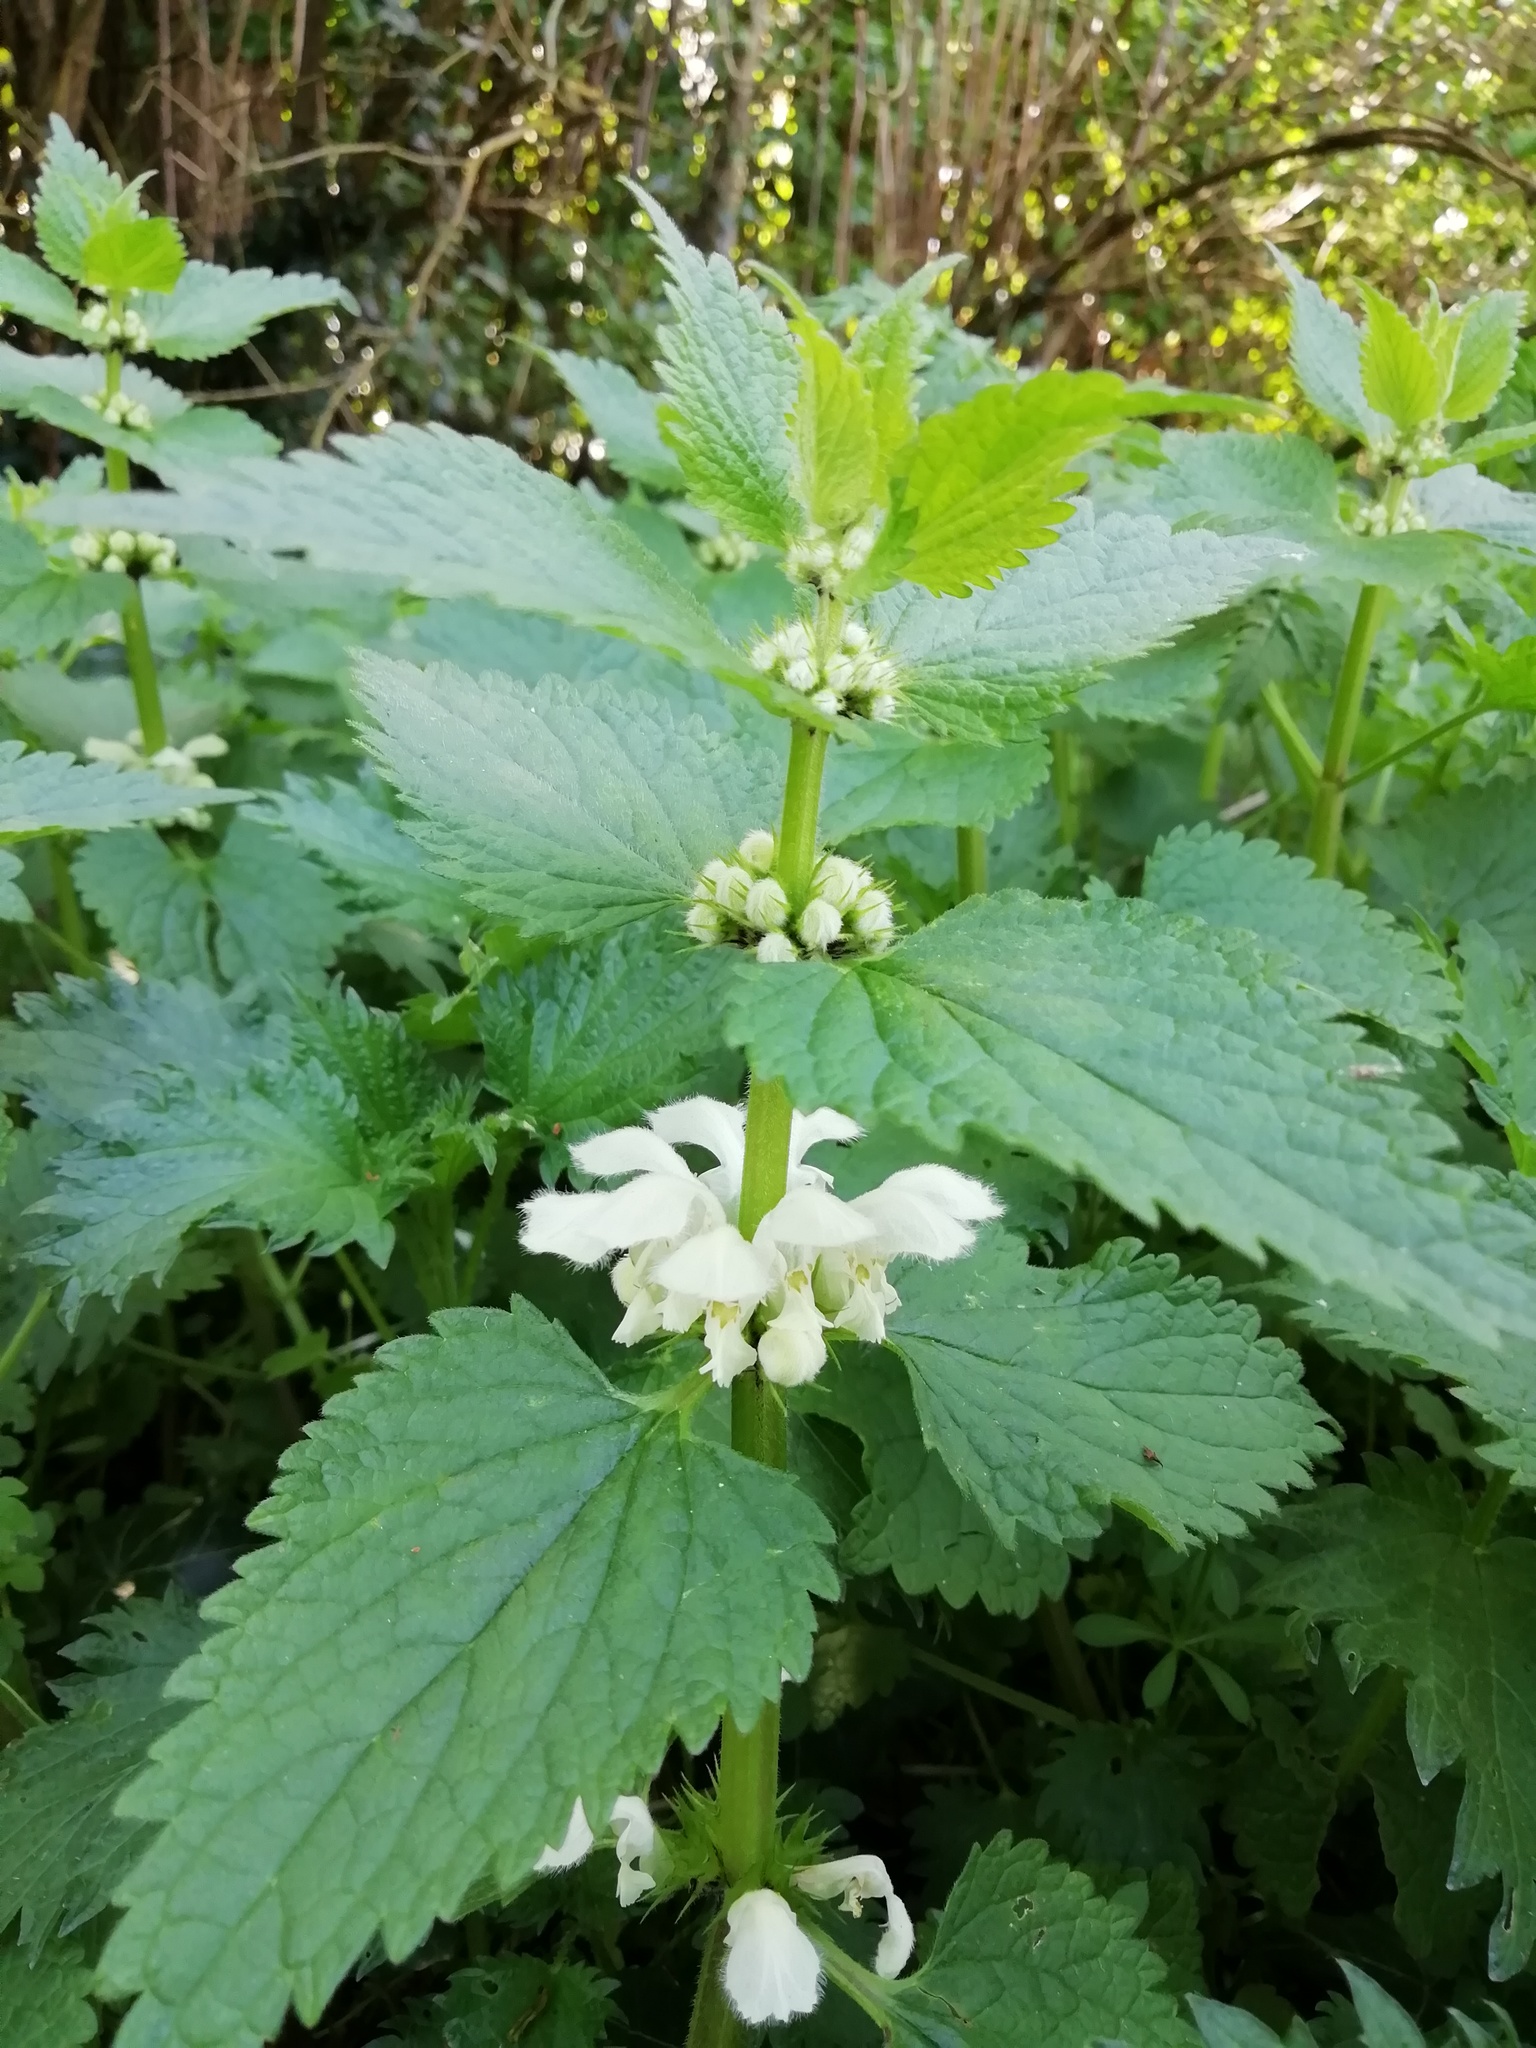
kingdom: Plantae
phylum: Tracheophyta
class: Magnoliopsida
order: Lamiales
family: Lamiaceae
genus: Lamium
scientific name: Lamium album
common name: White dead-nettle
